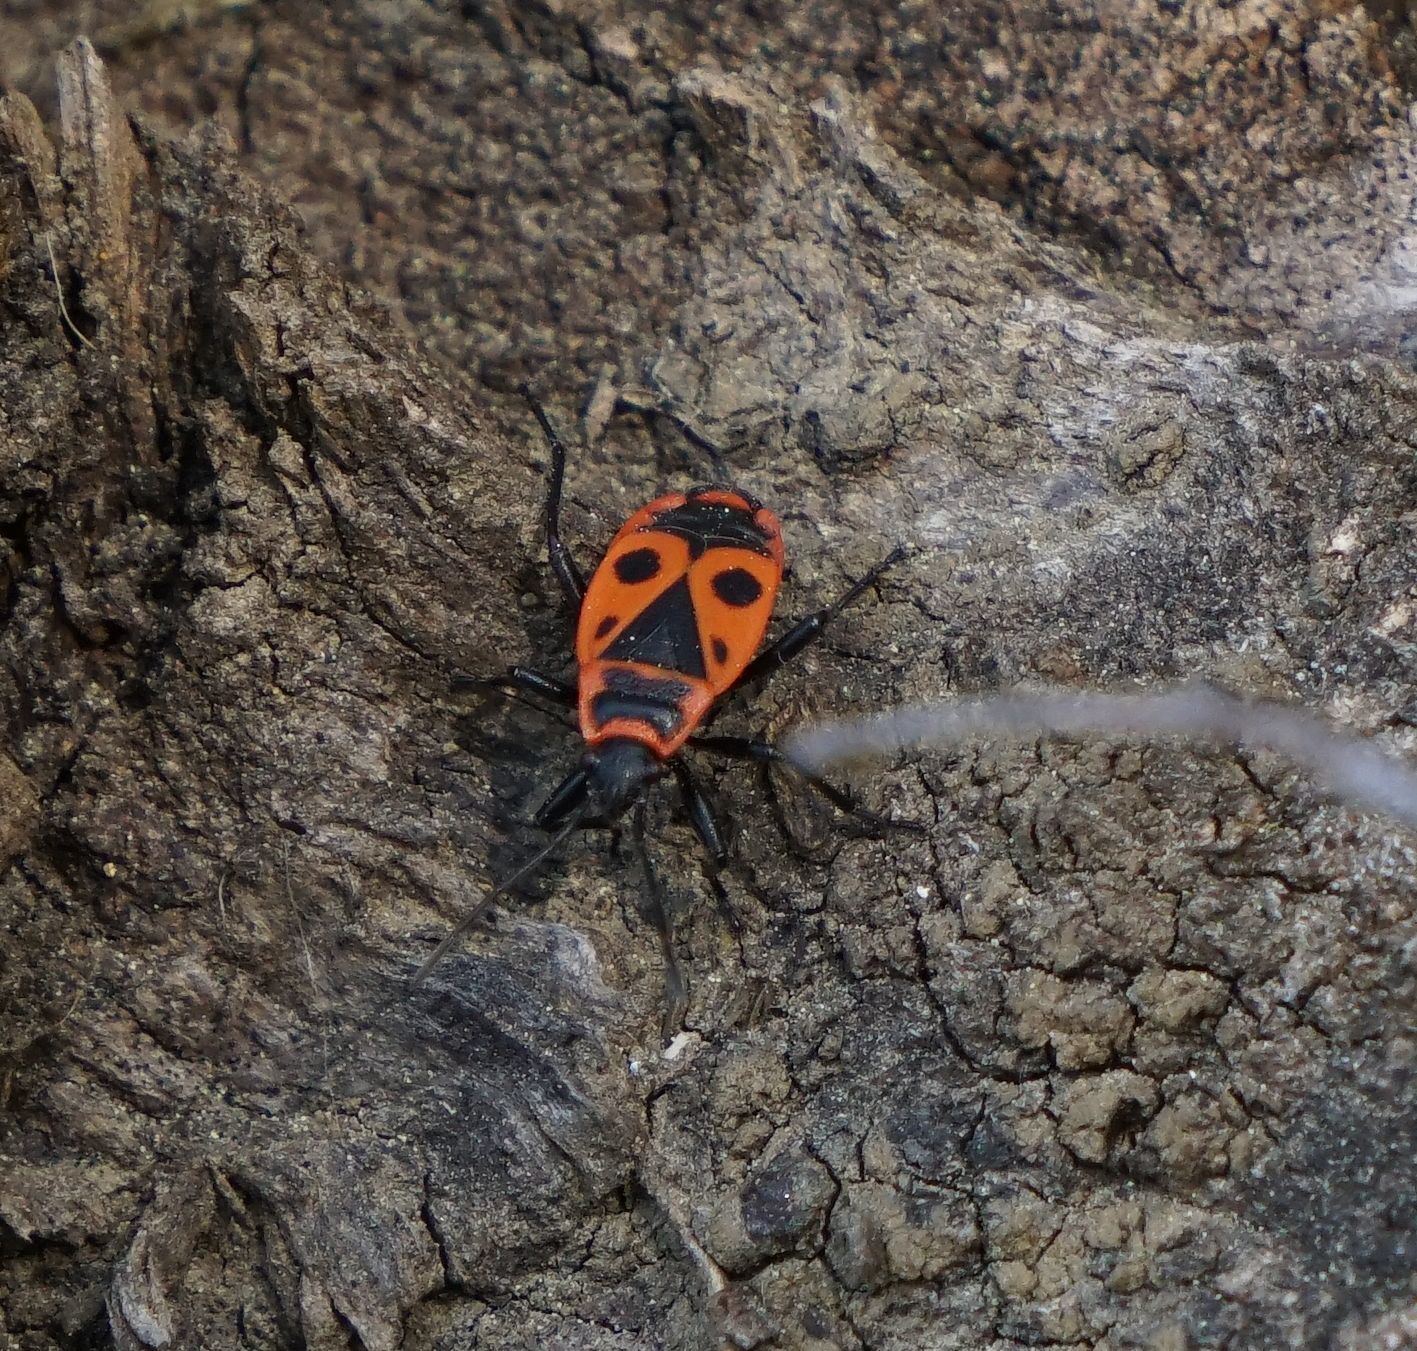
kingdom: Animalia
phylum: Arthropoda
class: Insecta
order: Hemiptera
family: Pyrrhocoridae
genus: Pyrrhocoris
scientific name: Pyrrhocoris apterus
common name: Firebug
